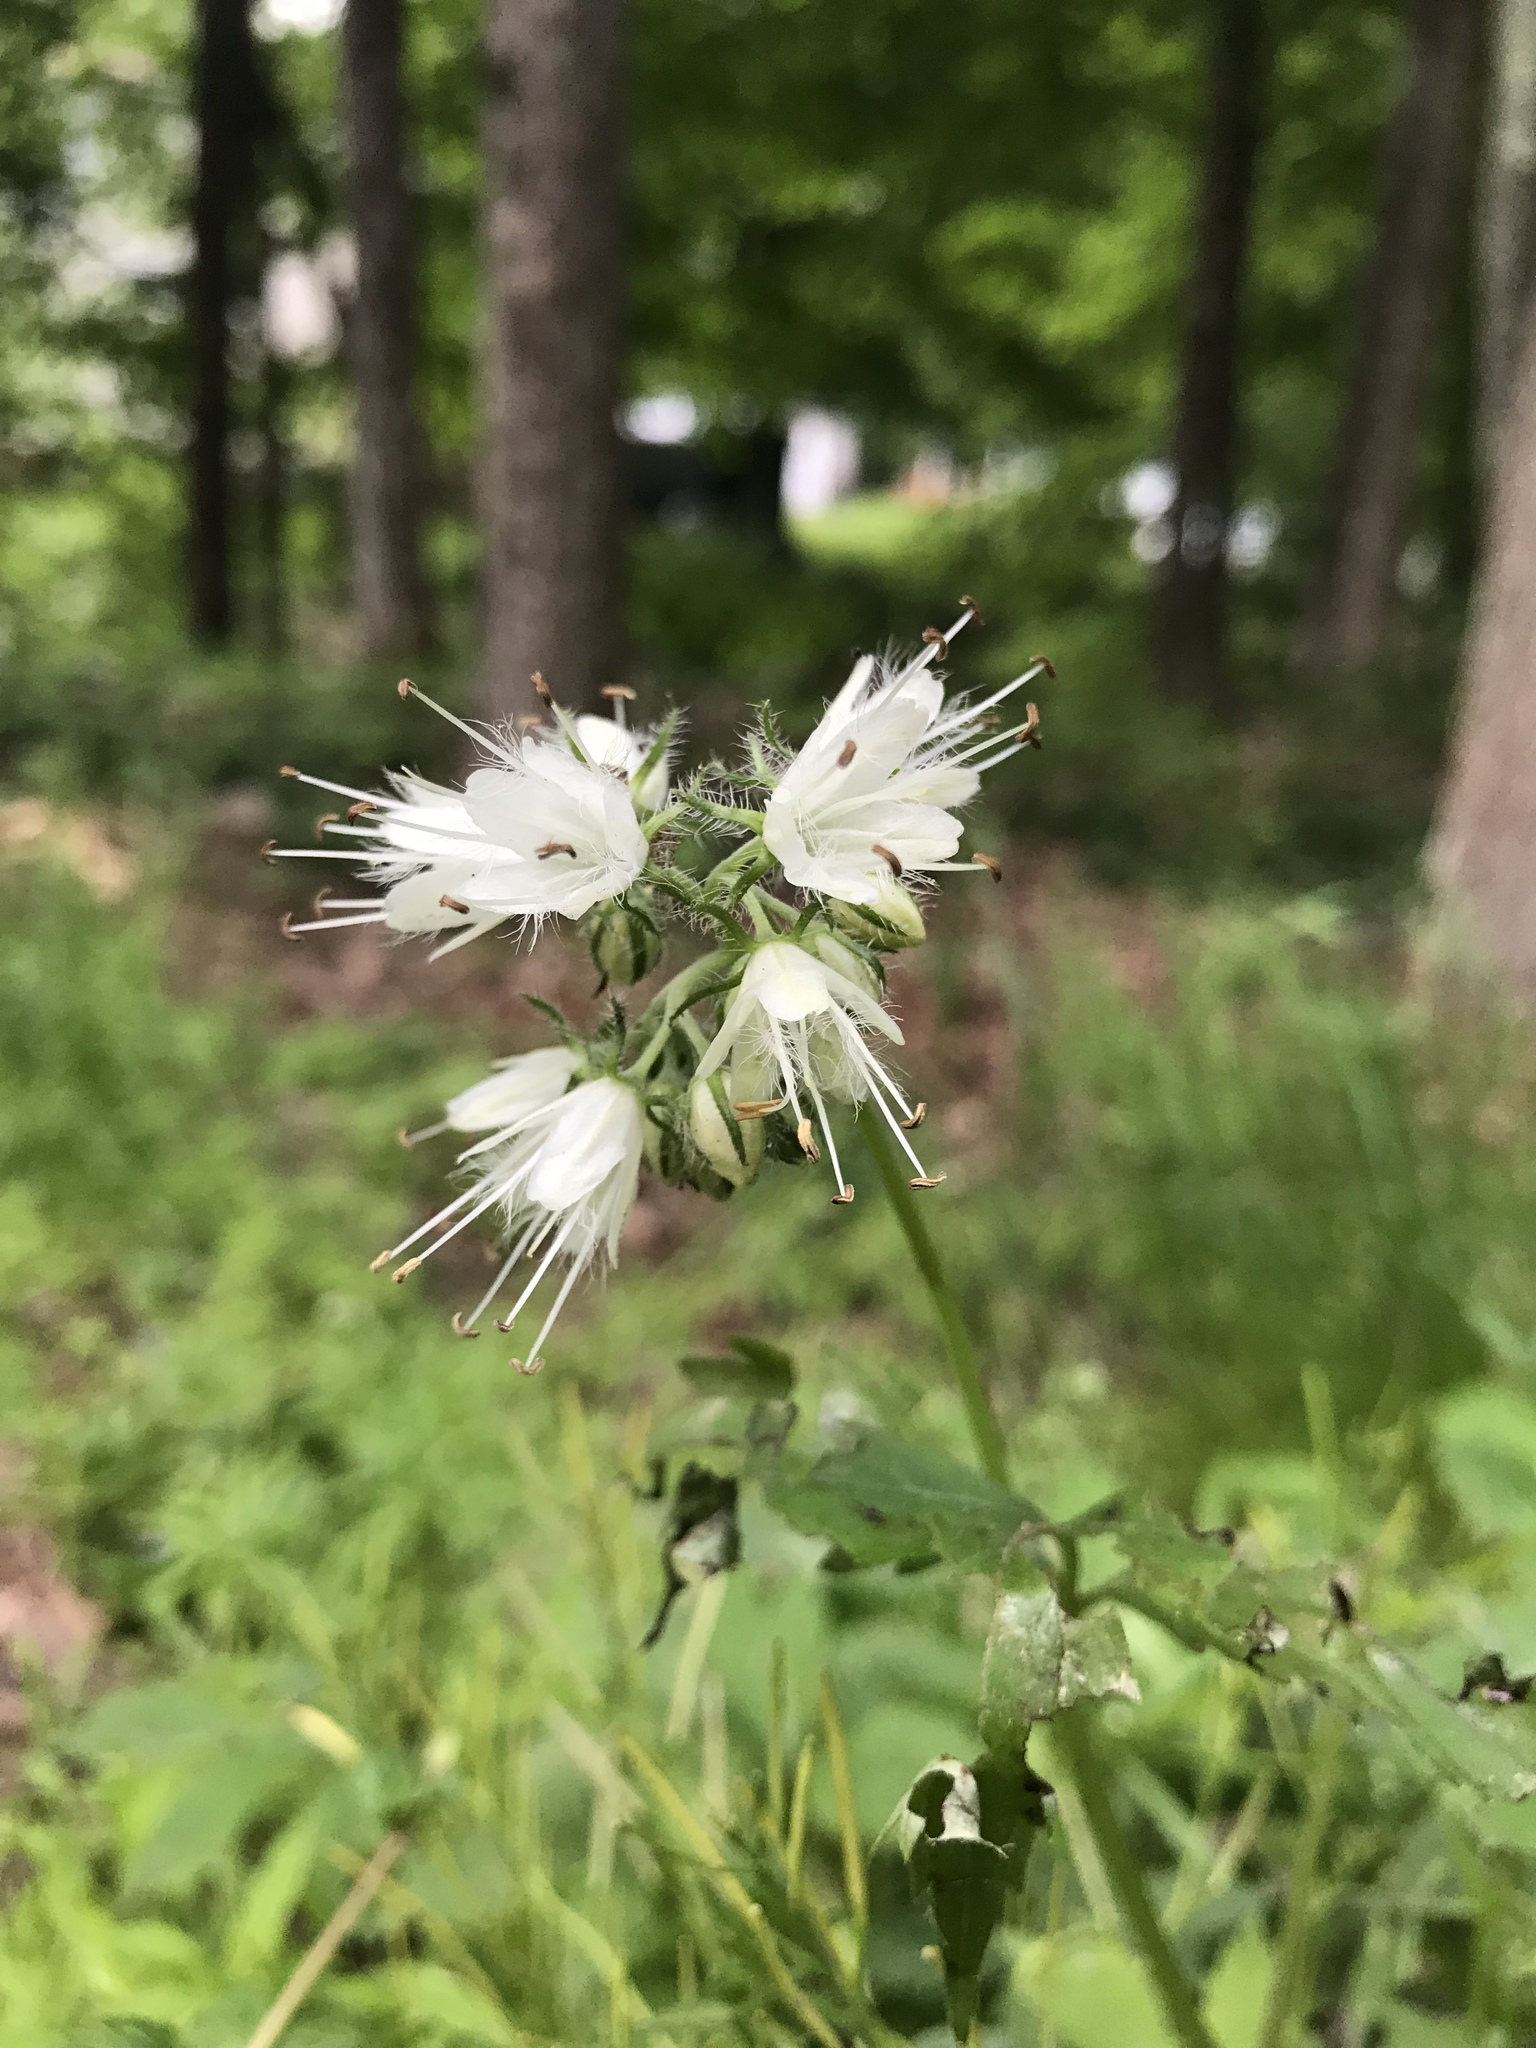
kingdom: Plantae
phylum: Tracheophyta
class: Magnoliopsida
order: Boraginales
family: Hydrophyllaceae
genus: Hydrophyllum
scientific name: Hydrophyllum virginianum
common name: Virginia waterleaf
